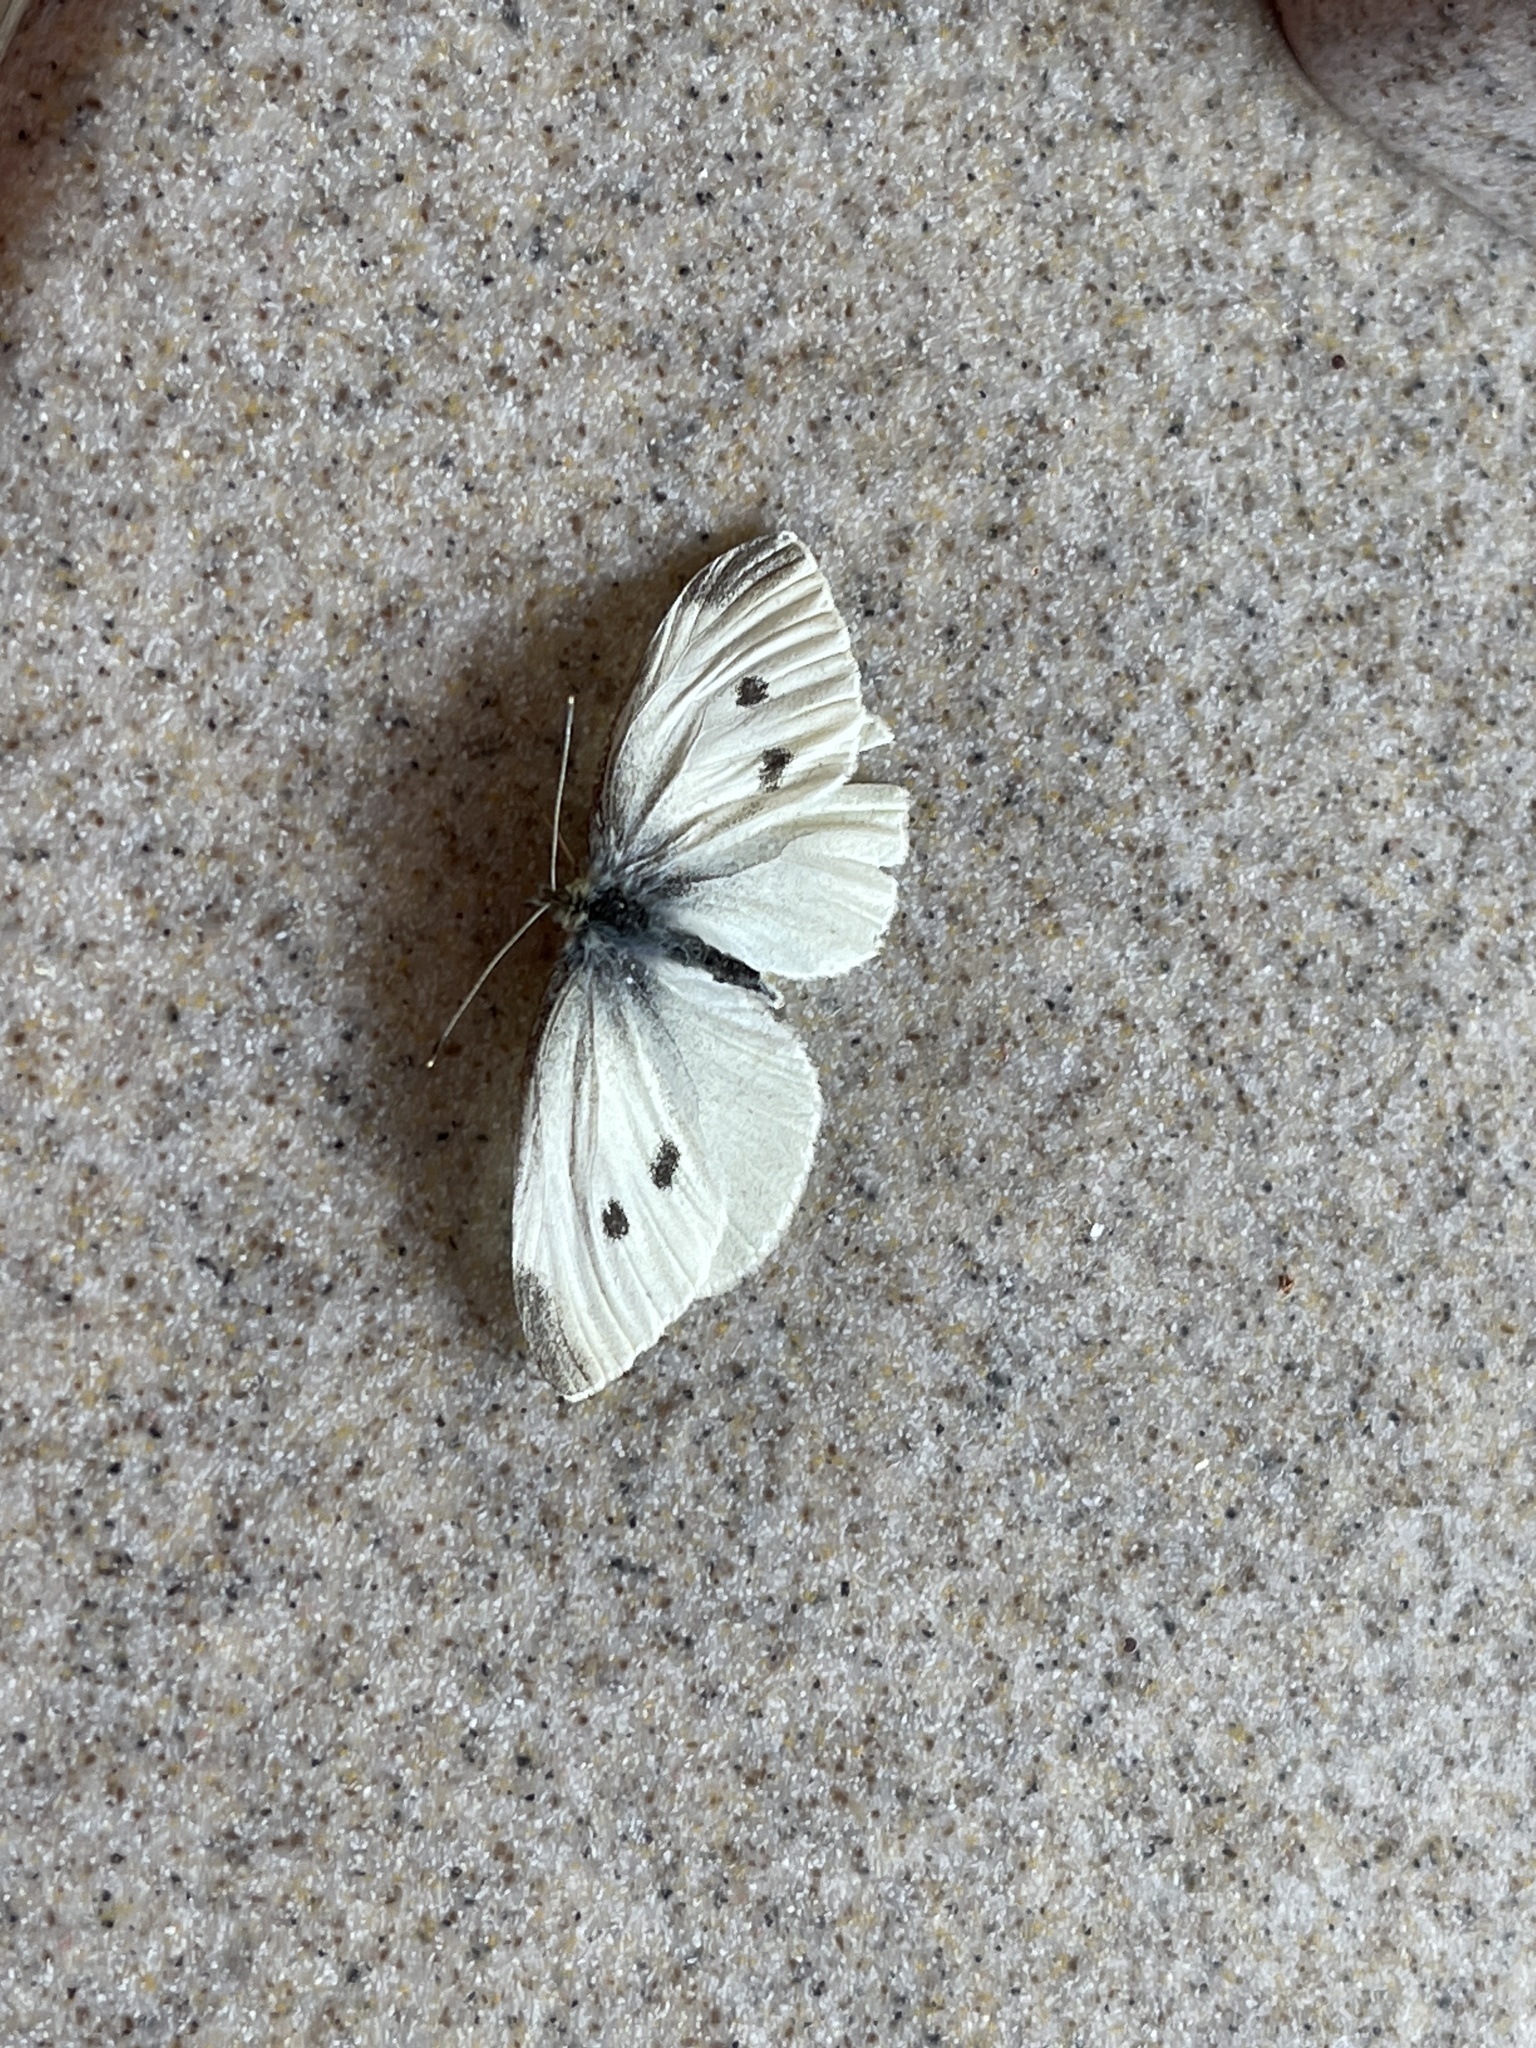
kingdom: Animalia
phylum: Arthropoda
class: Insecta
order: Lepidoptera
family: Pieridae
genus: Pieris
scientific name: Pieris rapae
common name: Small white
